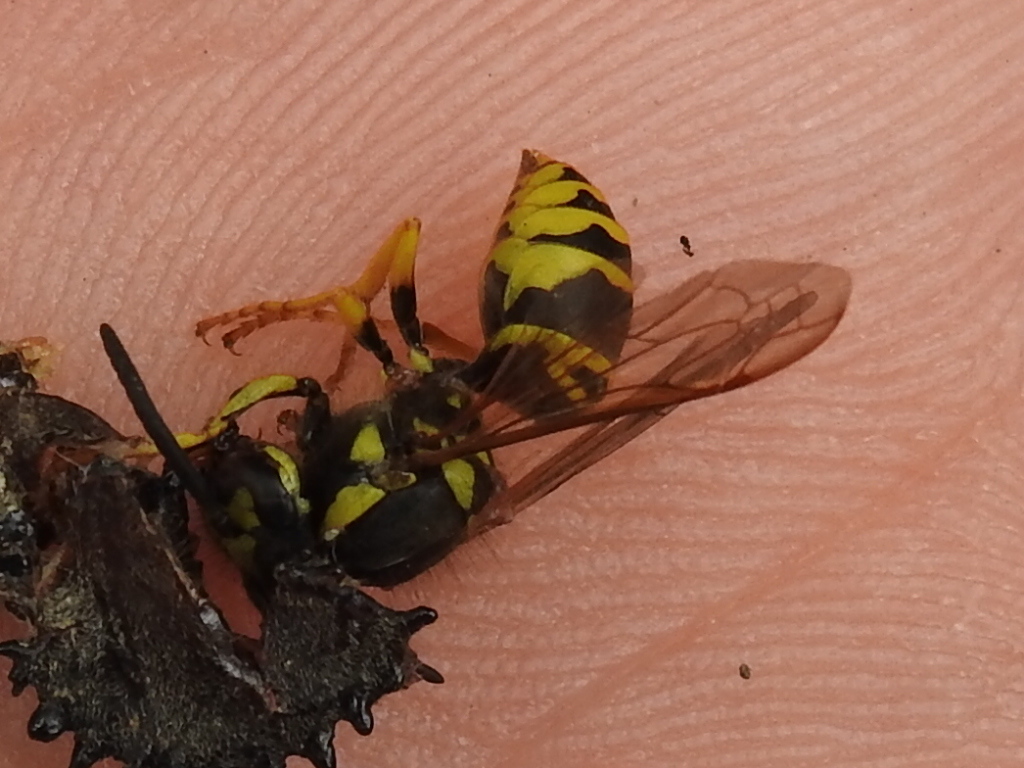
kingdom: Animalia
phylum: Arthropoda
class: Insecta
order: Hymenoptera
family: Vespidae
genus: Vespula
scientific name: Vespula maculifrons
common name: Eastern yellowjacket
